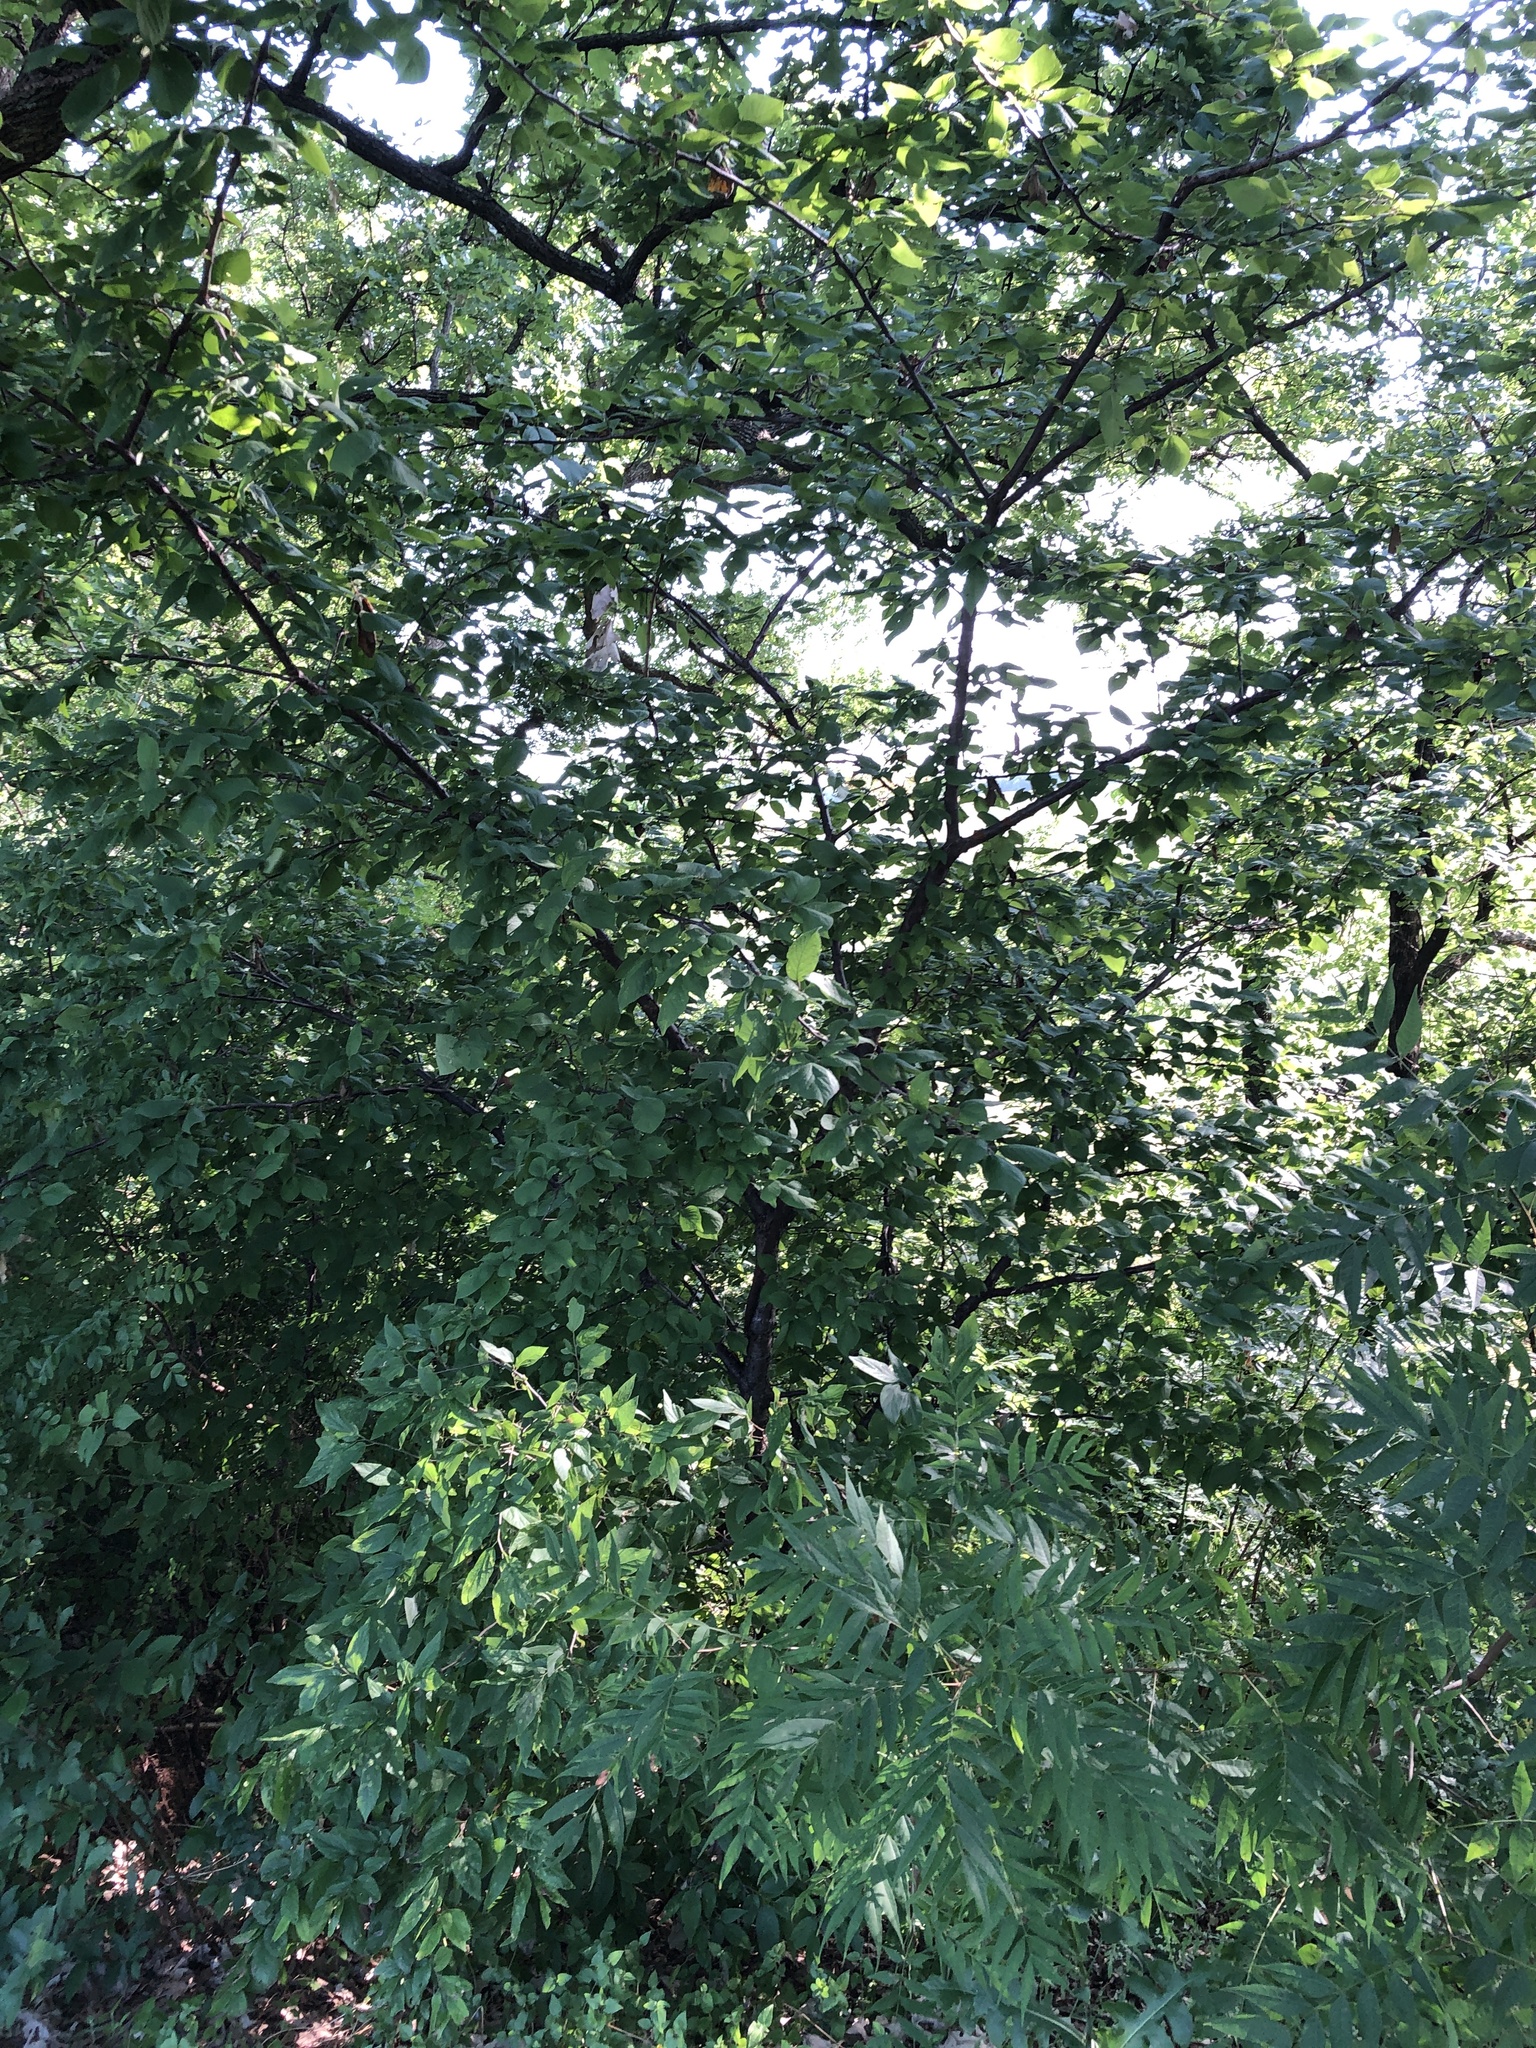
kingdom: Plantae
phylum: Tracheophyta
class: Magnoliopsida
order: Rosales
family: Rosaceae
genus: Prunus
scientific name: Prunus mexicana
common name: Mexican plum
